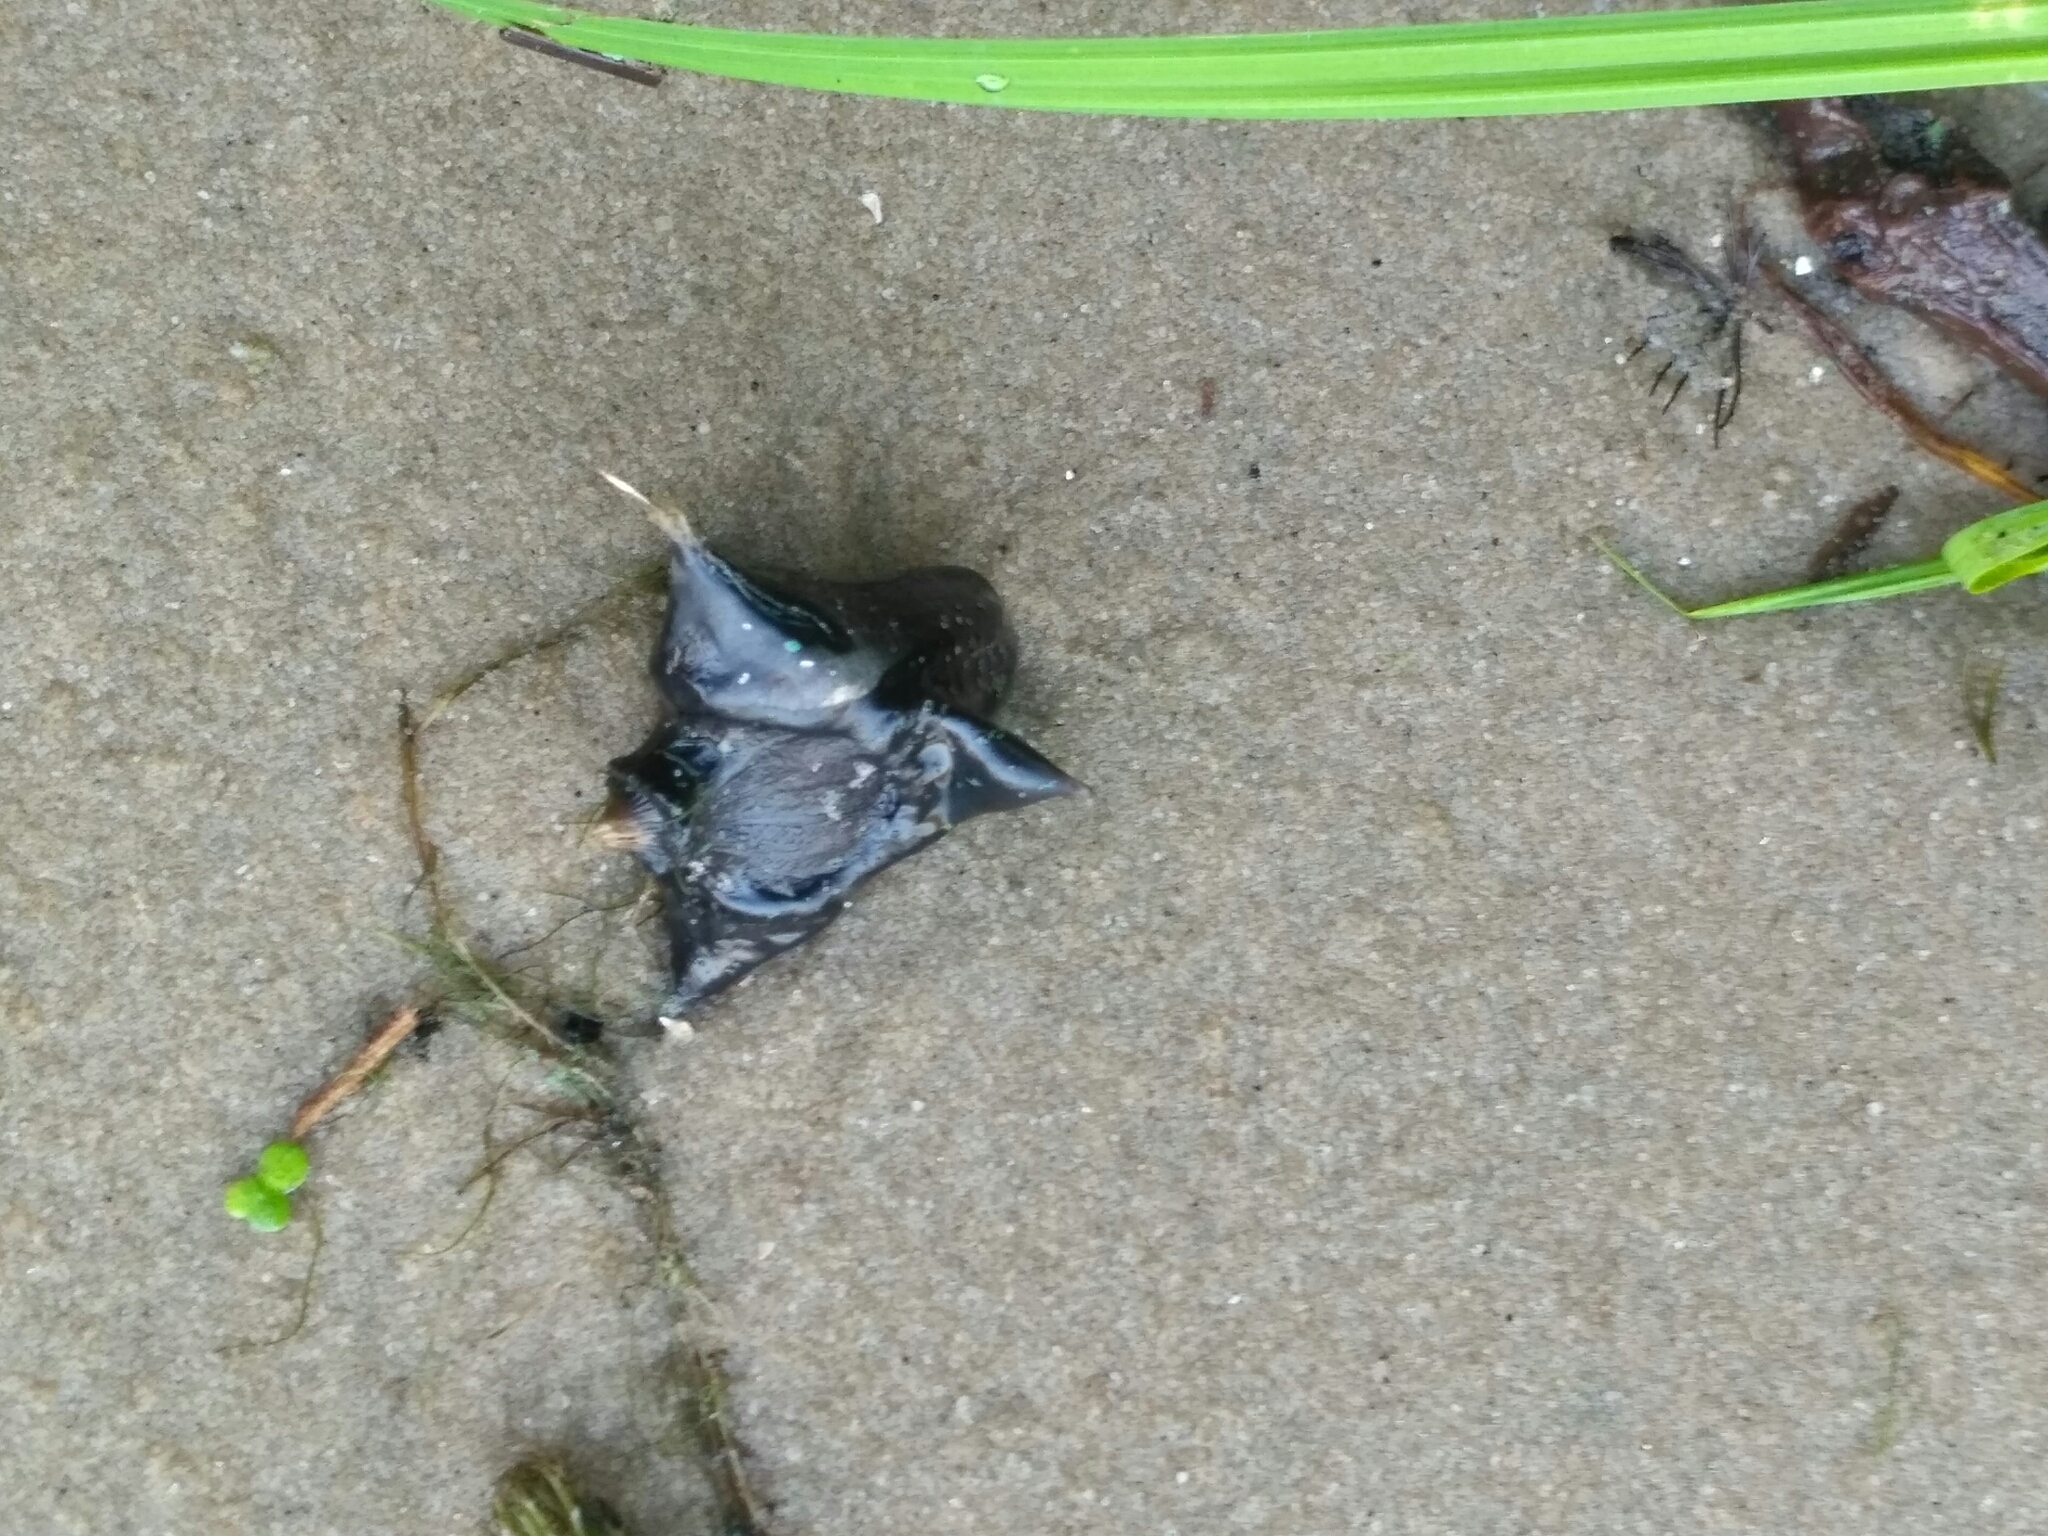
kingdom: Plantae
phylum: Tracheophyta
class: Magnoliopsida
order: Myrtales
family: Lythraceae
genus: Trapa
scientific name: Trapa natans
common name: Water chestnut
